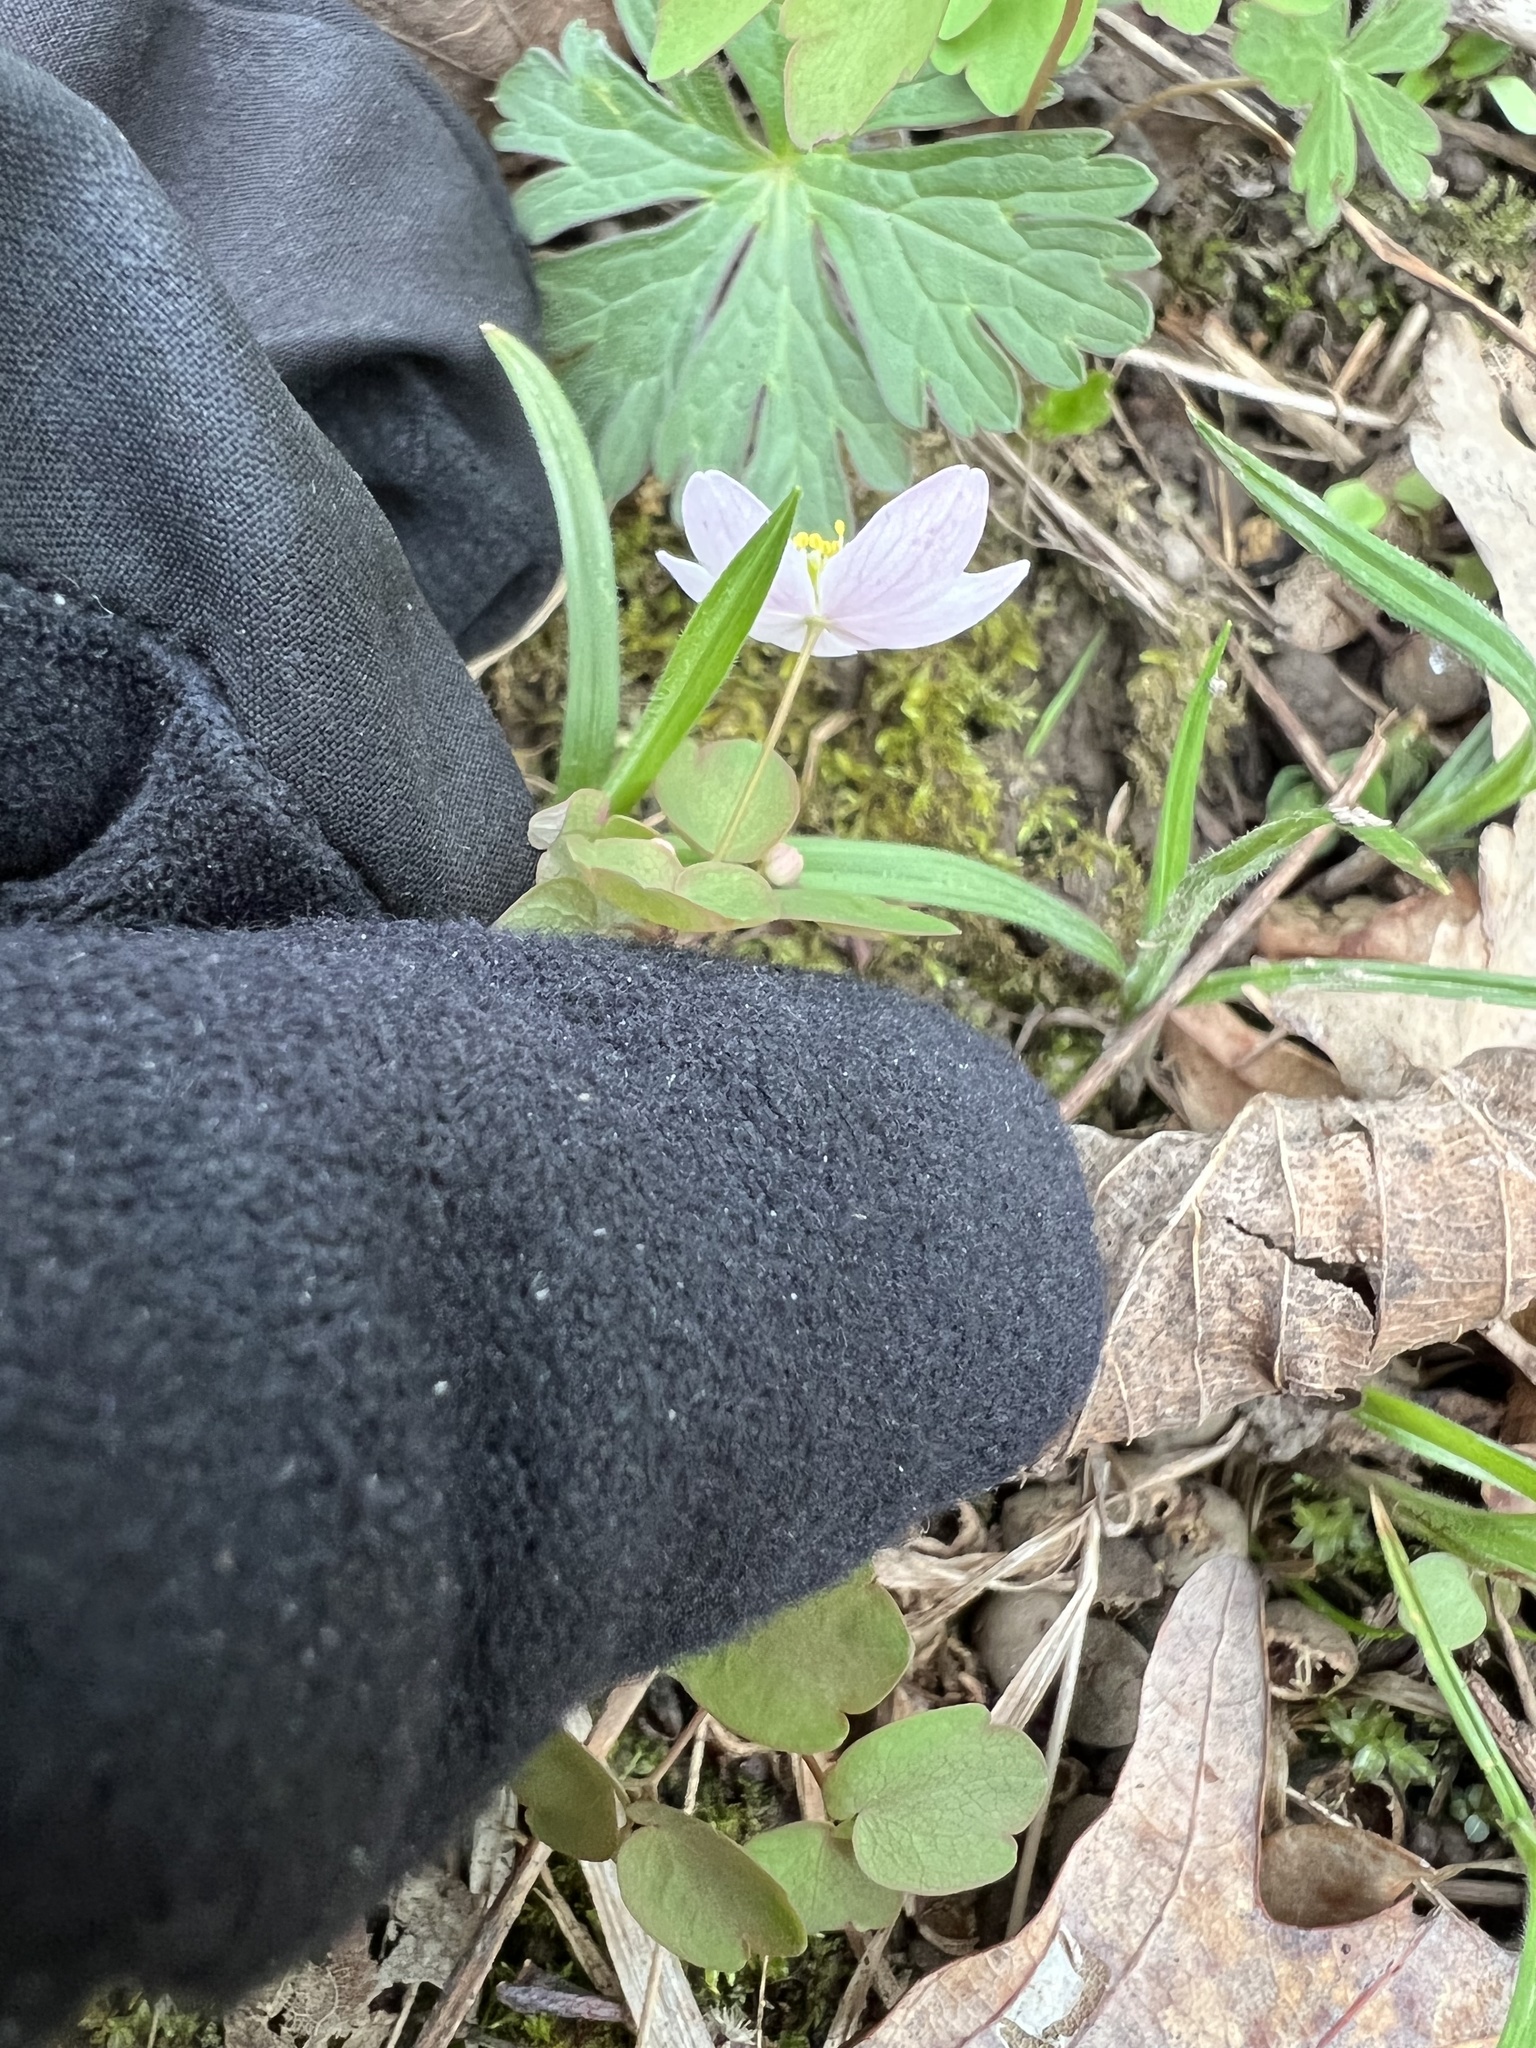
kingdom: Plantae
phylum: Tracheophyta
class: Magnoliopsida
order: Ranunculales
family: Ranunculaceae
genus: Thalictrum
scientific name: Thalictrum thalictroides
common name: Rue-anemone
